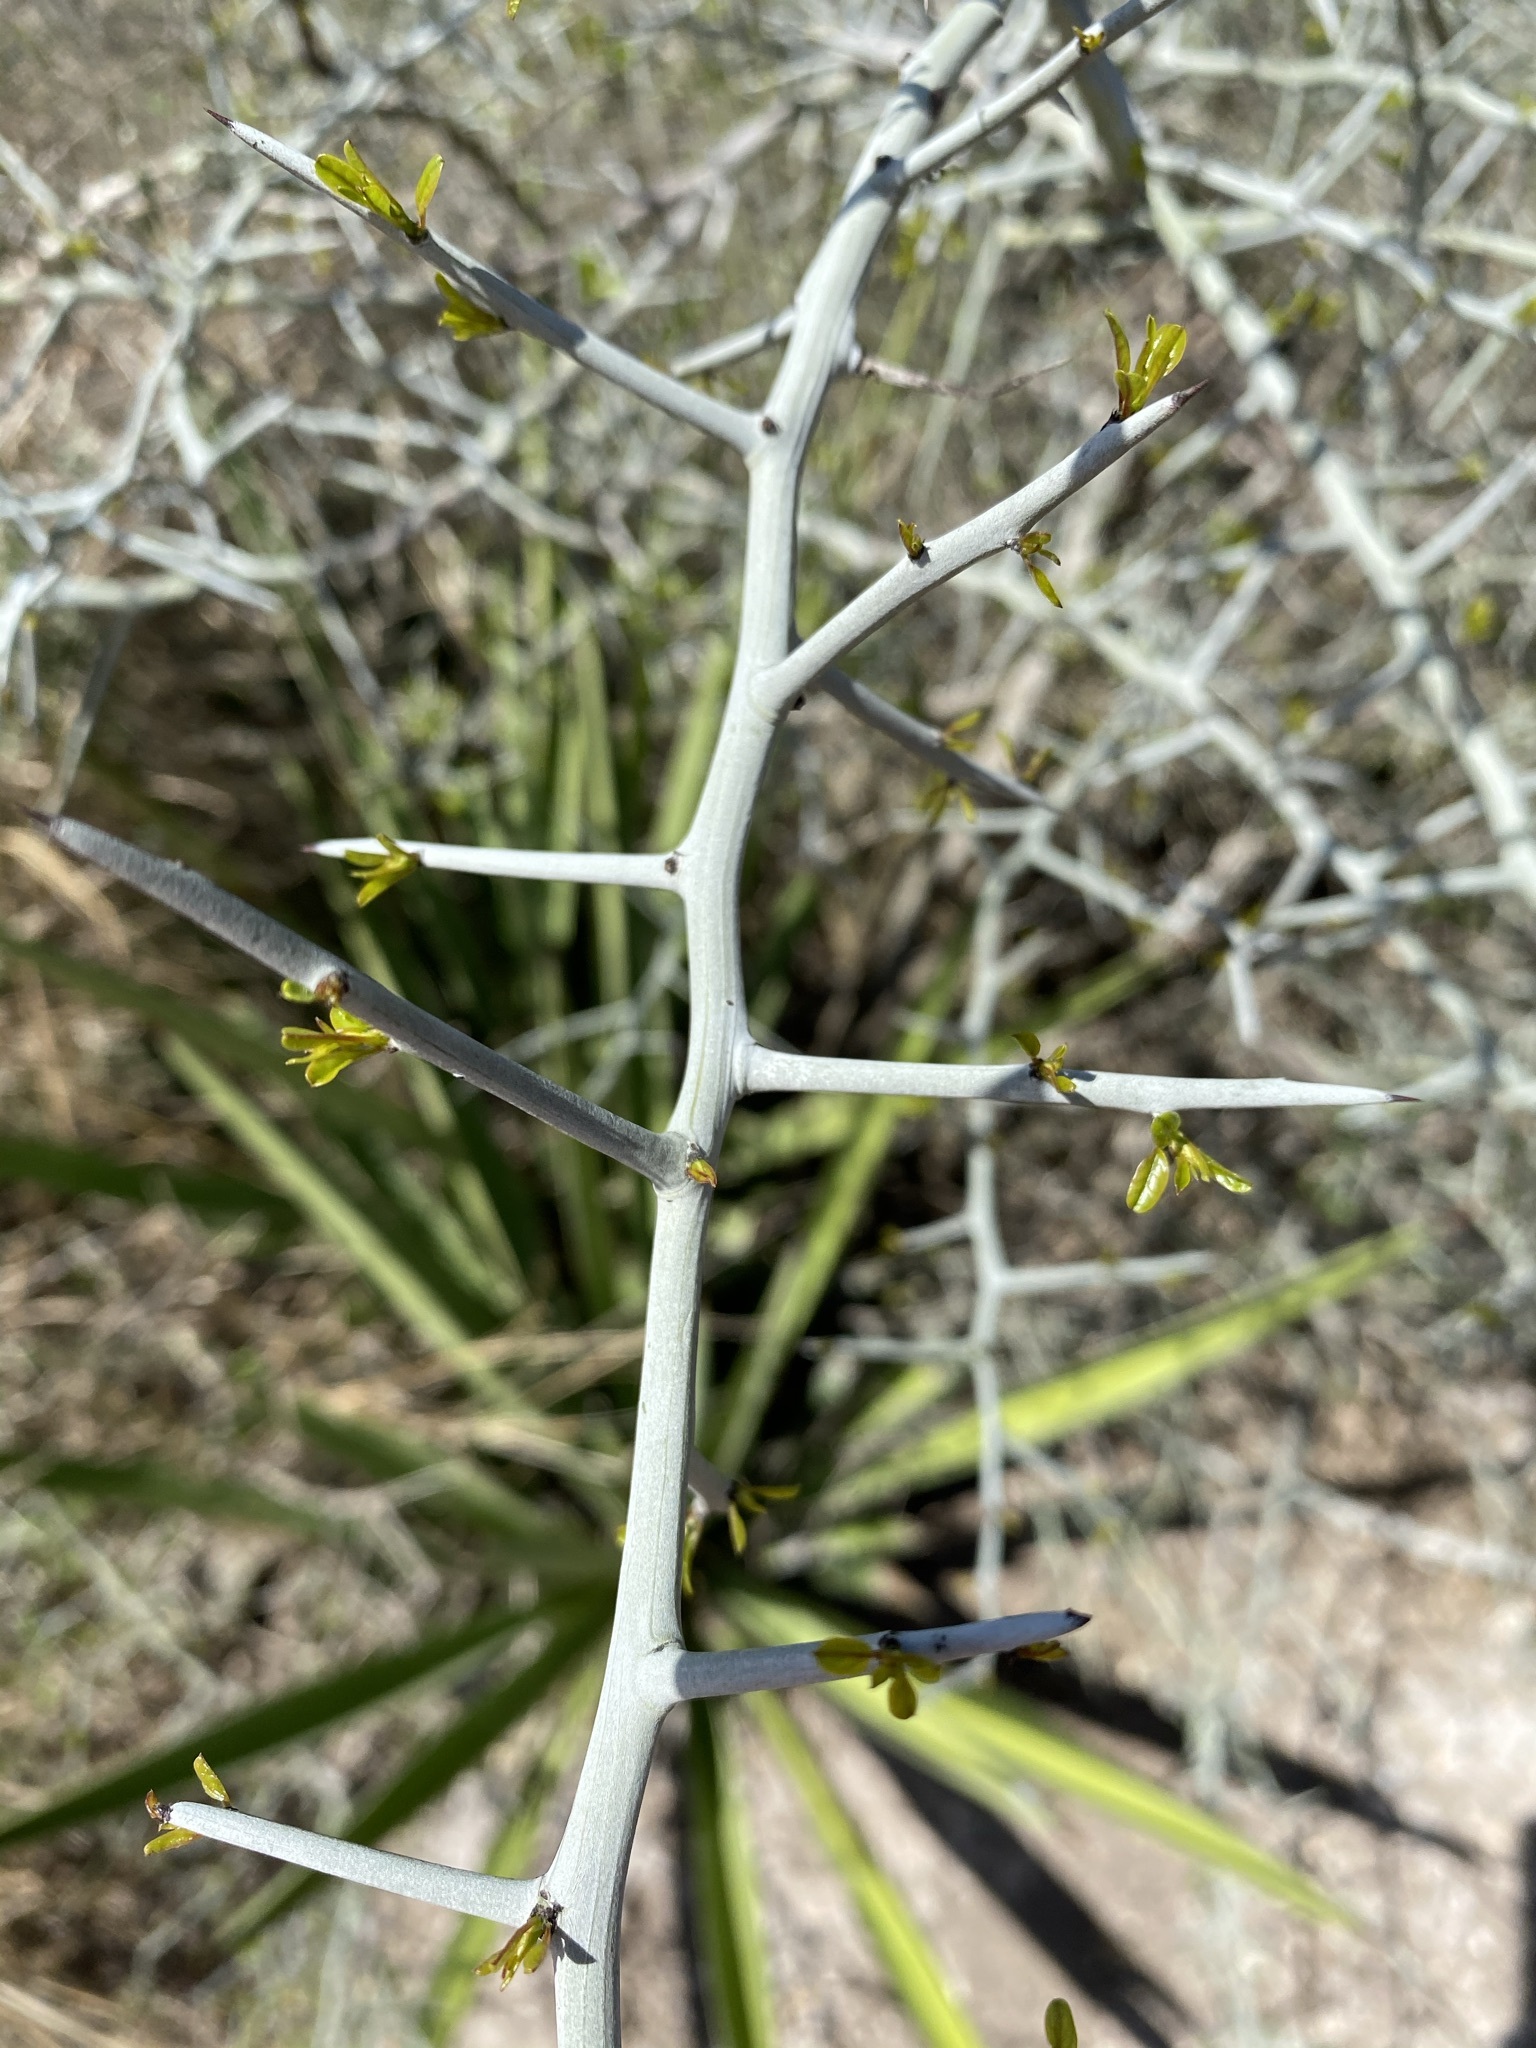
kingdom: Plantae
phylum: Tracheophyta
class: Magnoliopsida
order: Rosales
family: Rhamnaceae
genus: Sarcomphalus
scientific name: Sarcomphalus obtusifolius
